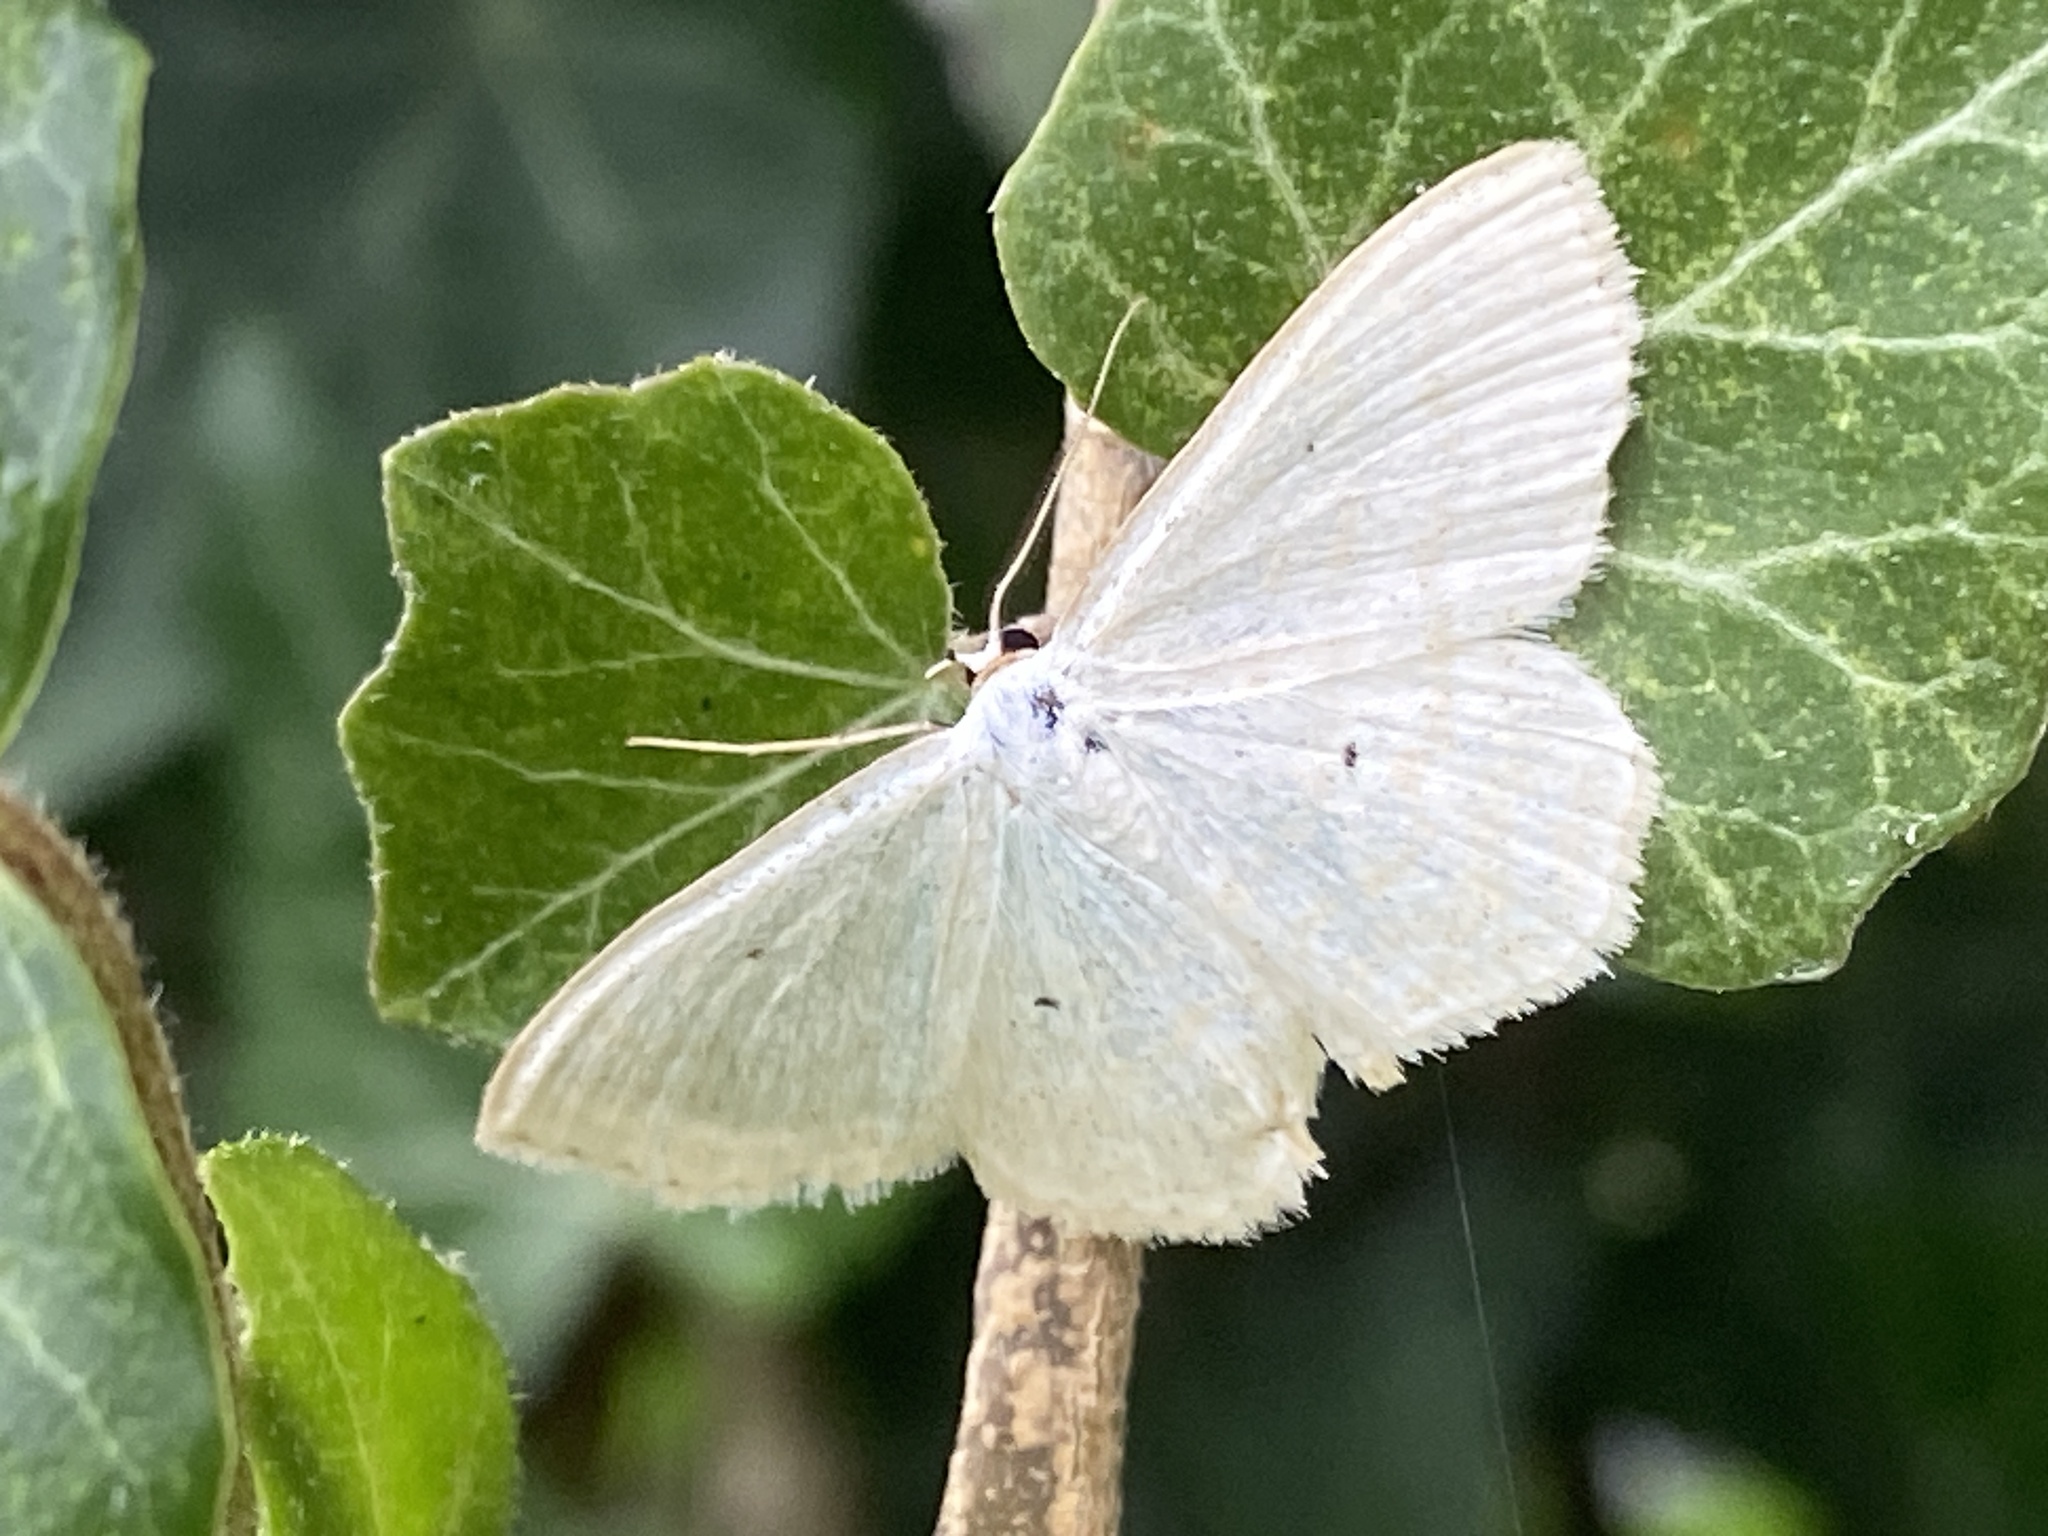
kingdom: Animalia
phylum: Arthropoda
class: Insecta
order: Lepidoptera
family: Geometridae
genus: Scopula
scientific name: Scopula immutata
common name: Lesser cream wave
